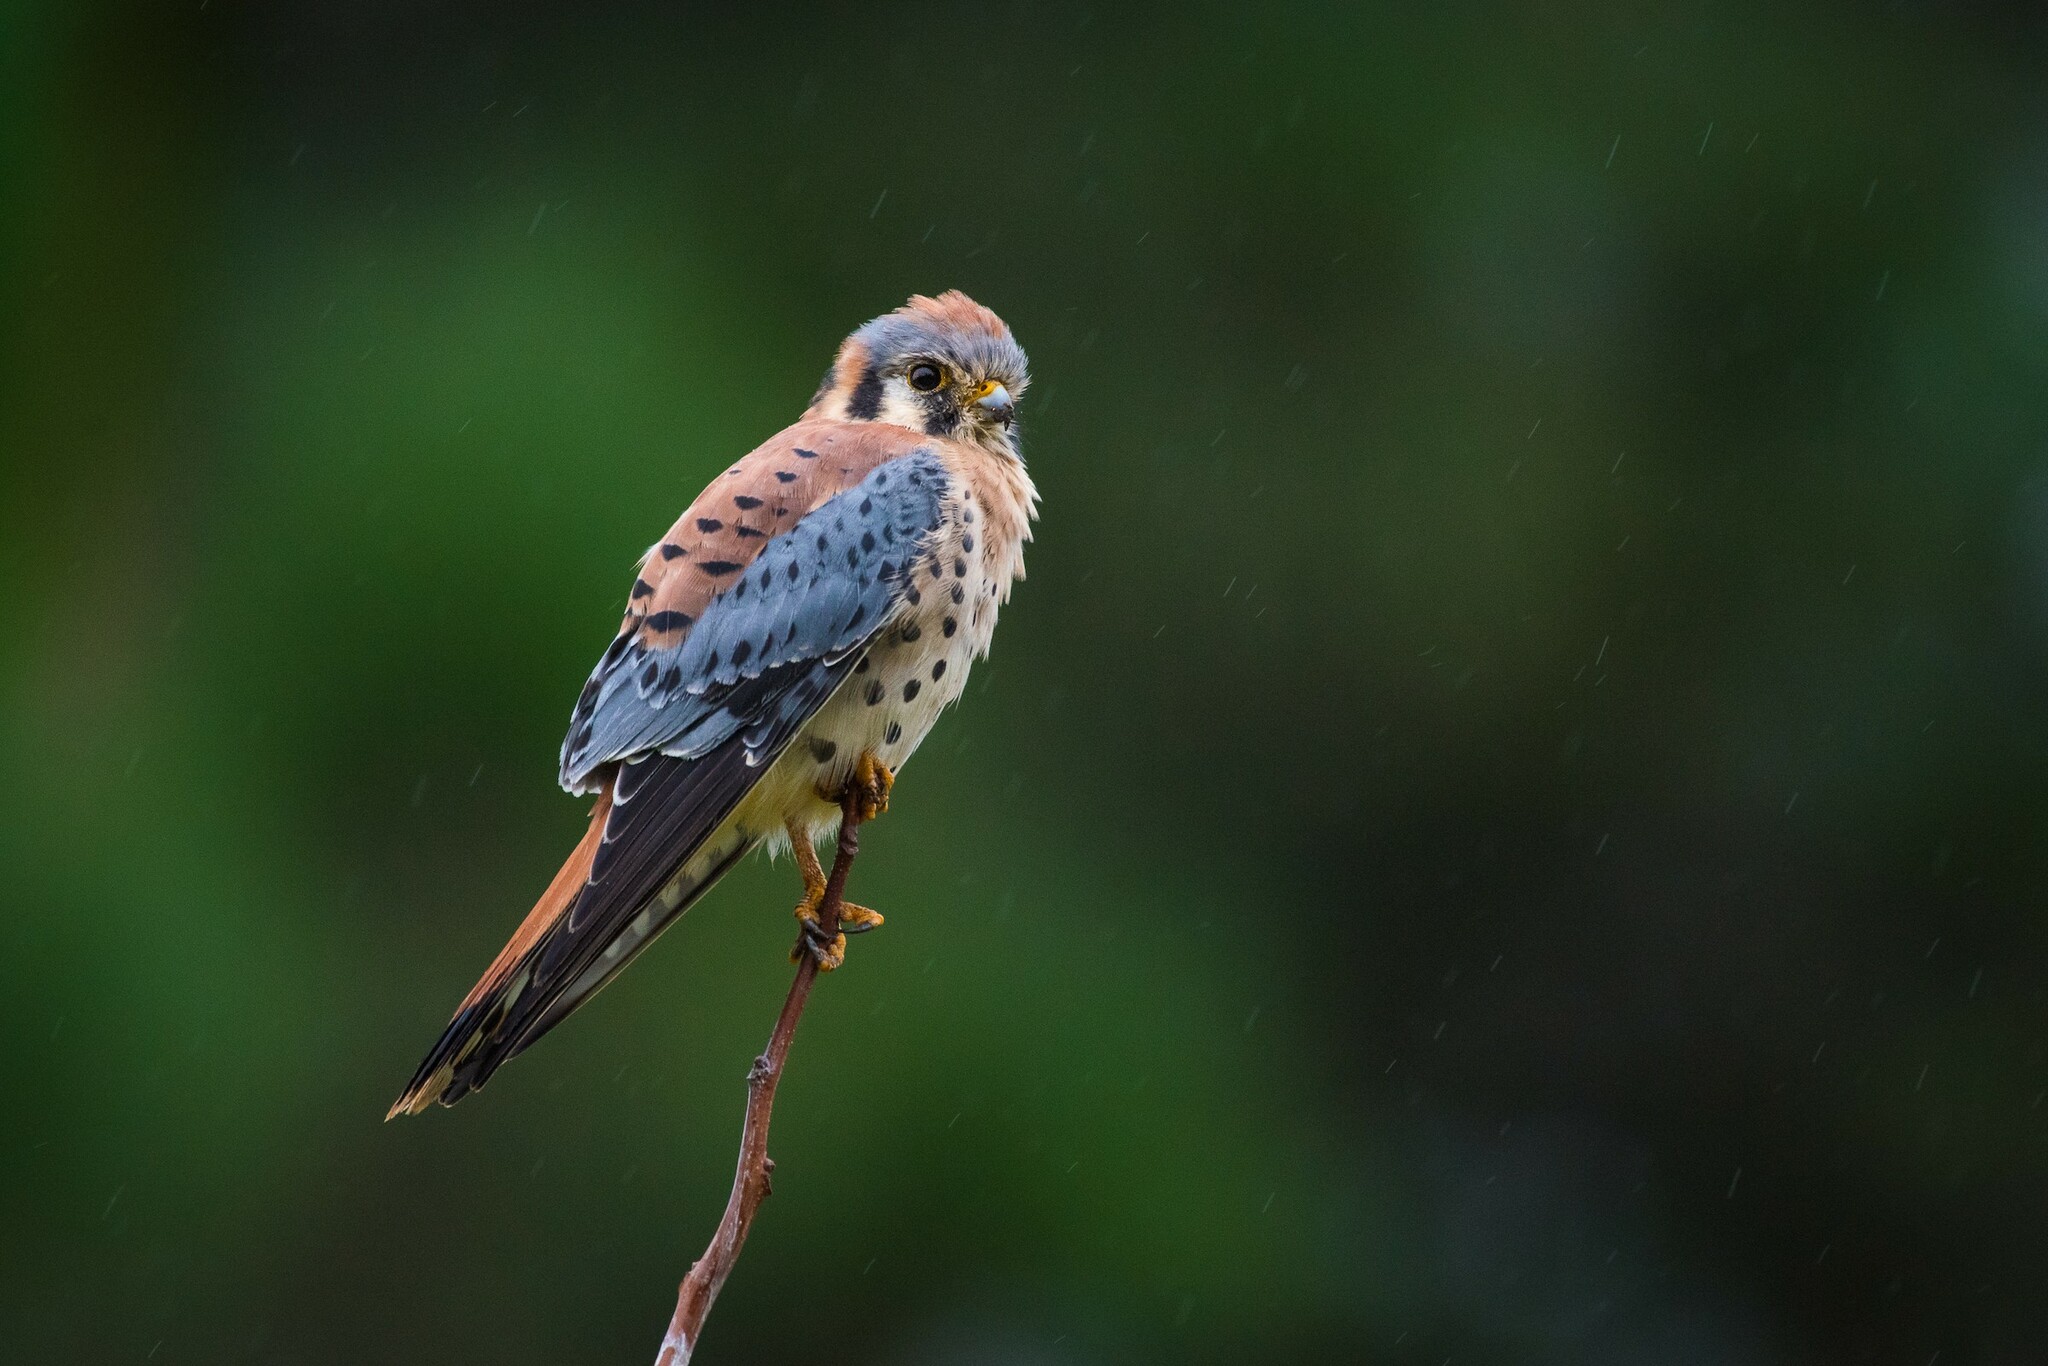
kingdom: Animalia
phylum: Chordata
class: Aves
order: Falconiformes
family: Falconidae
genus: Falco
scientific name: Falco sparverius
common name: American kestrel
